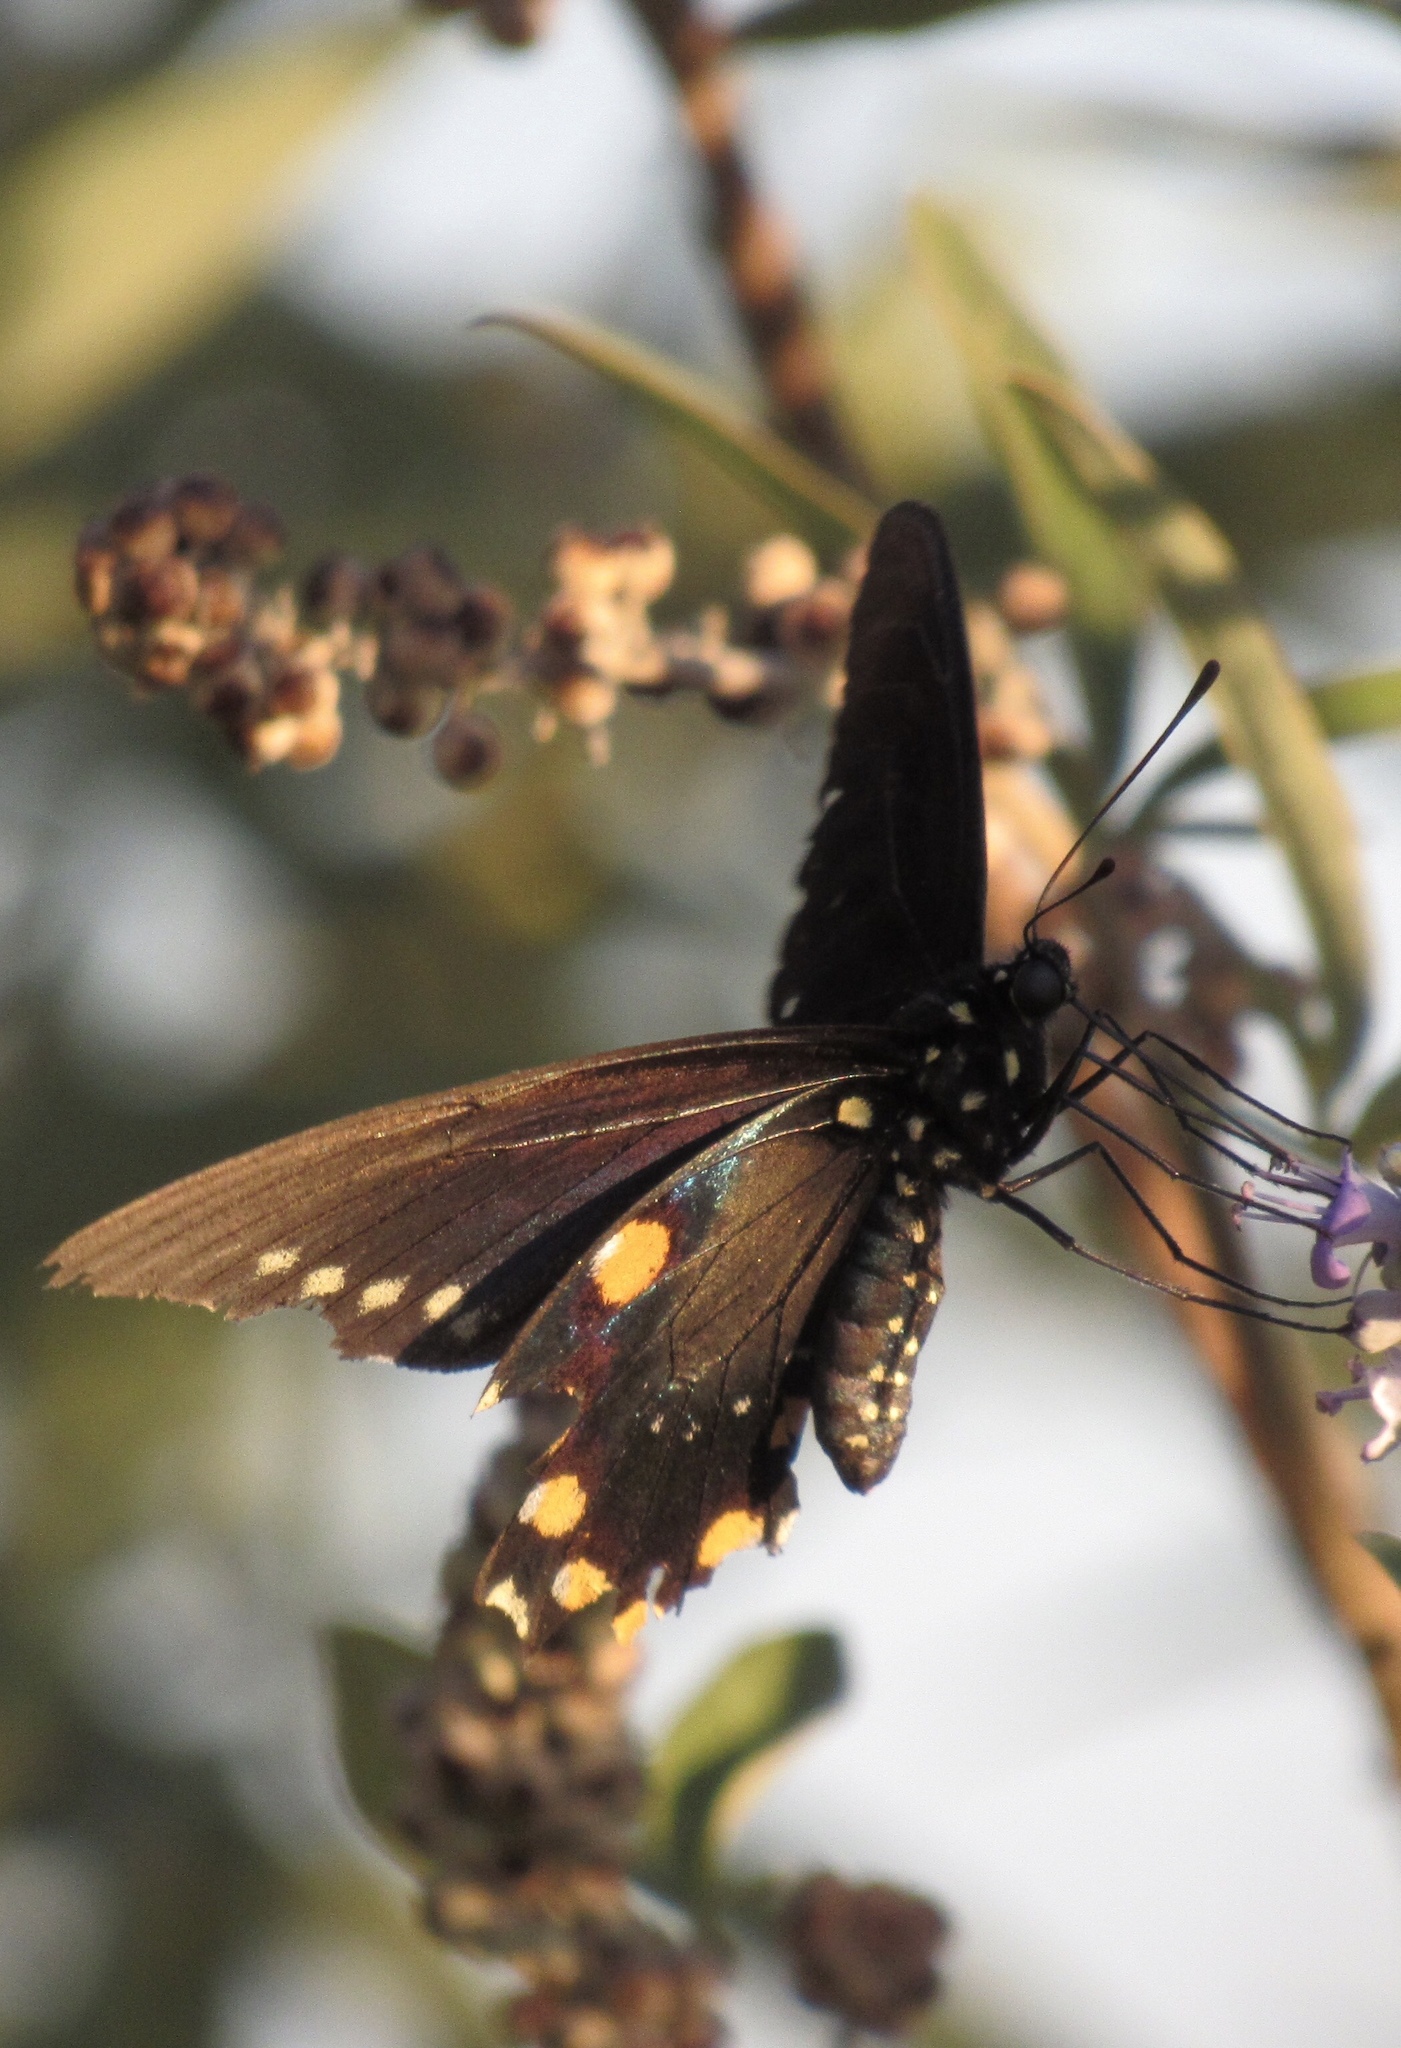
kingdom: Animalia
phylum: Arthropoda
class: Insecta
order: Lepidoptera
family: Papilionidae
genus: Battus
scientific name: Battus philenor
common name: Pipevine swallowtail
